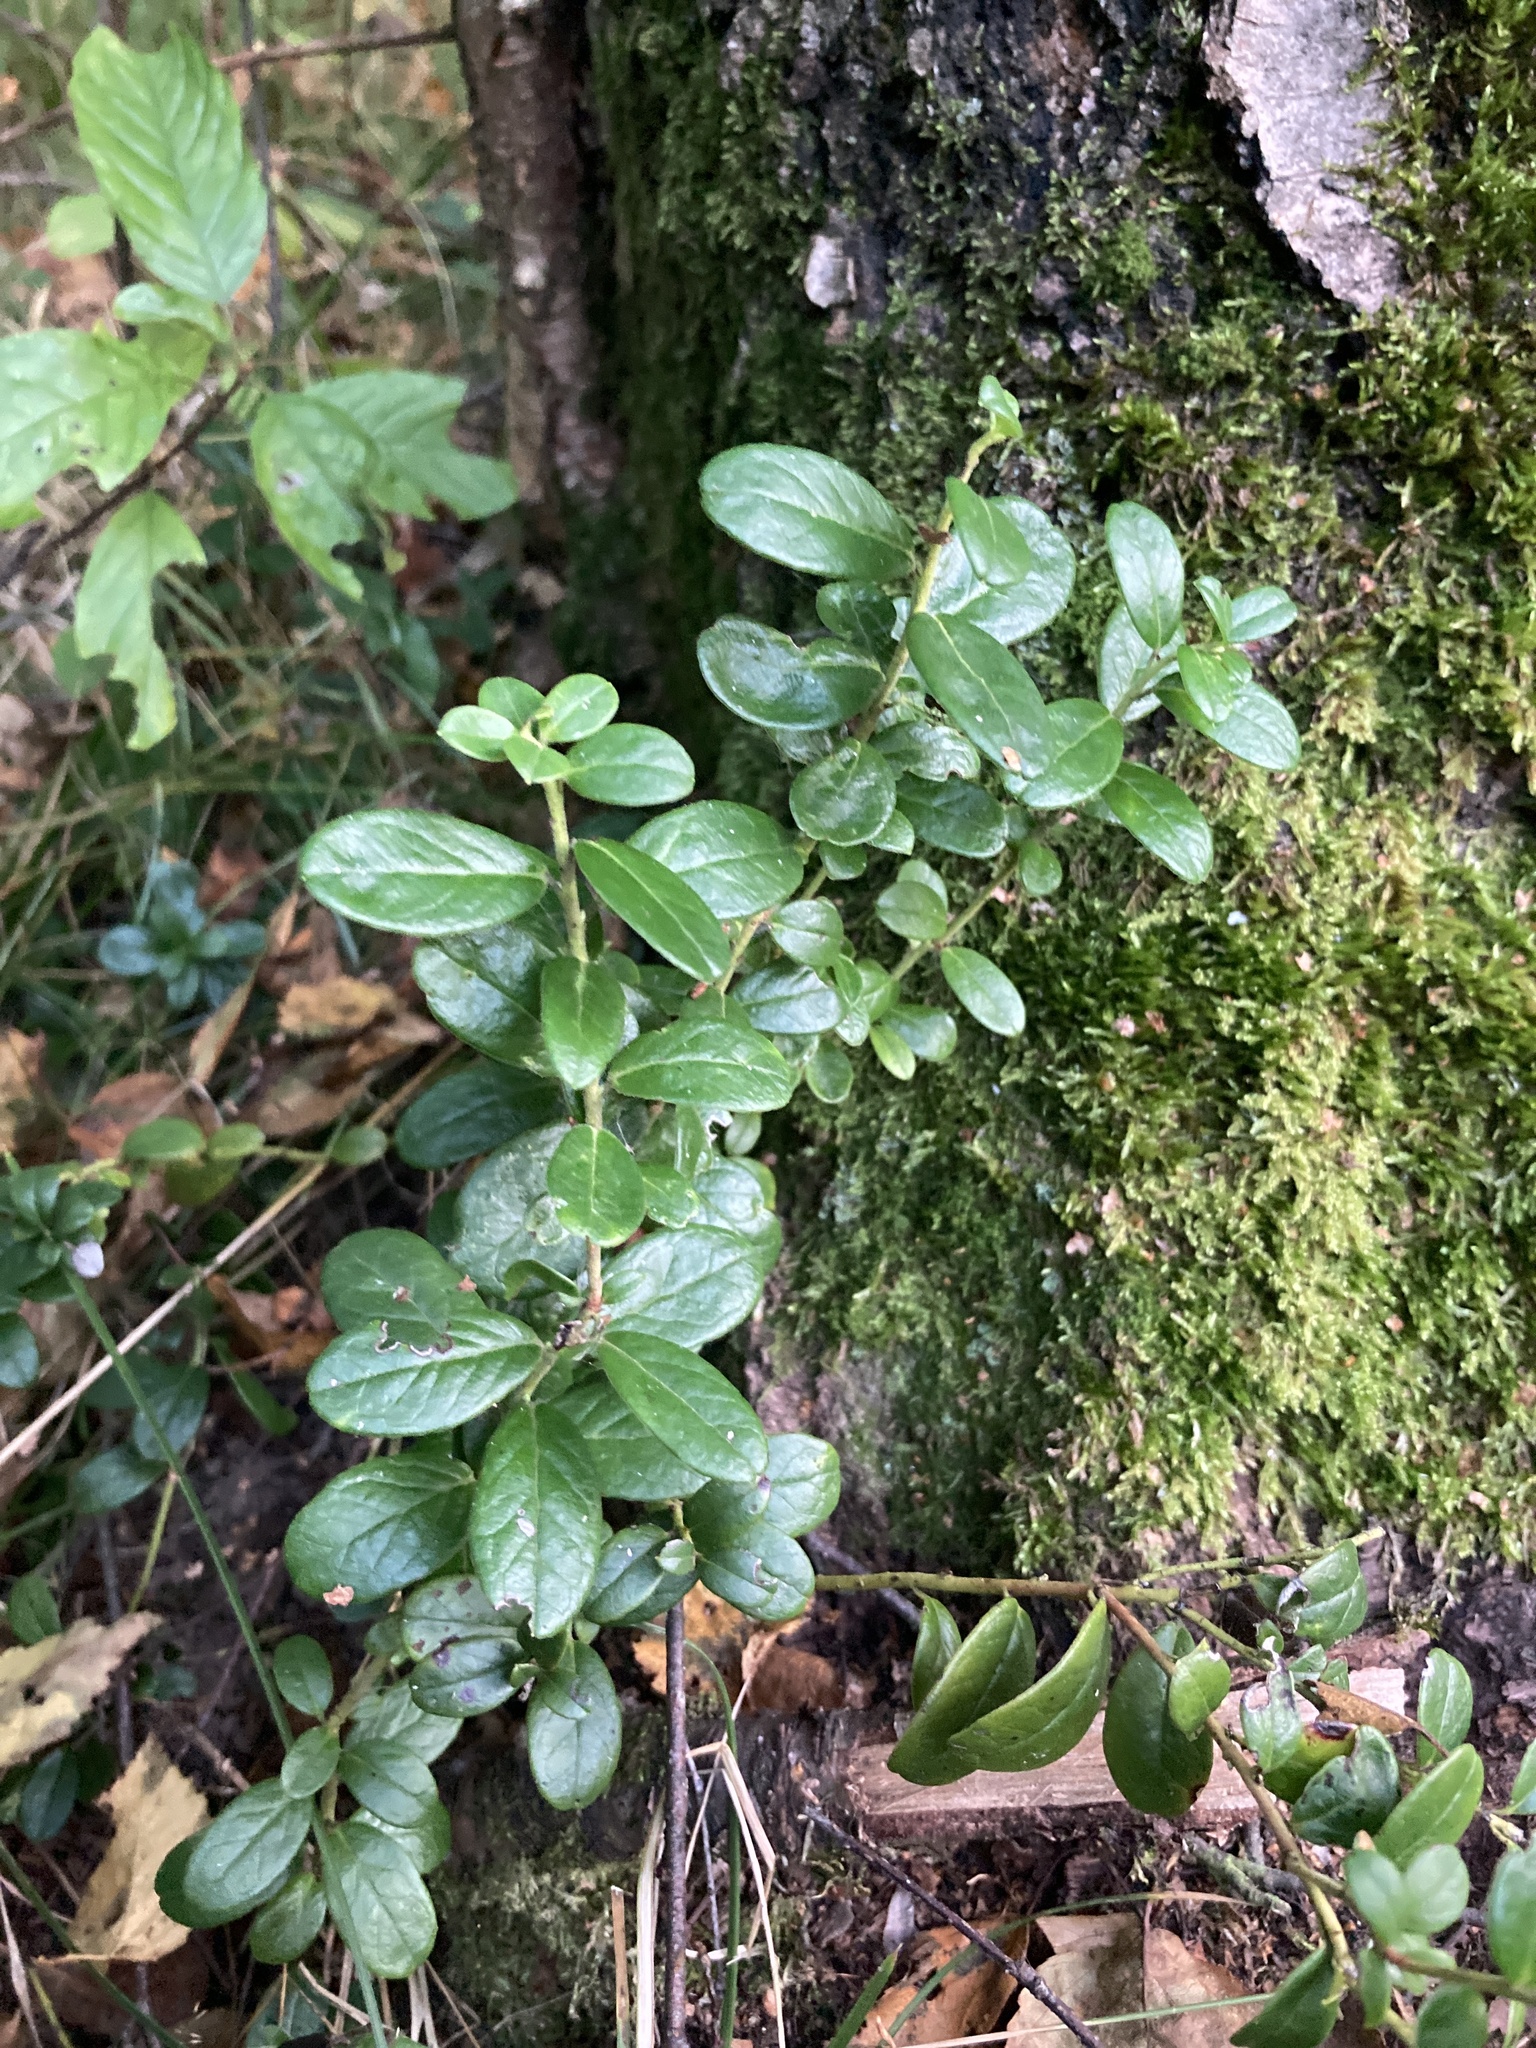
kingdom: Plantae
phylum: Tracheophyta
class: Magnoliopsida
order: Ericales
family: Ericaceae
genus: Vaccinium
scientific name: Vaccinium vitis-idaea
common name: Cowberry
